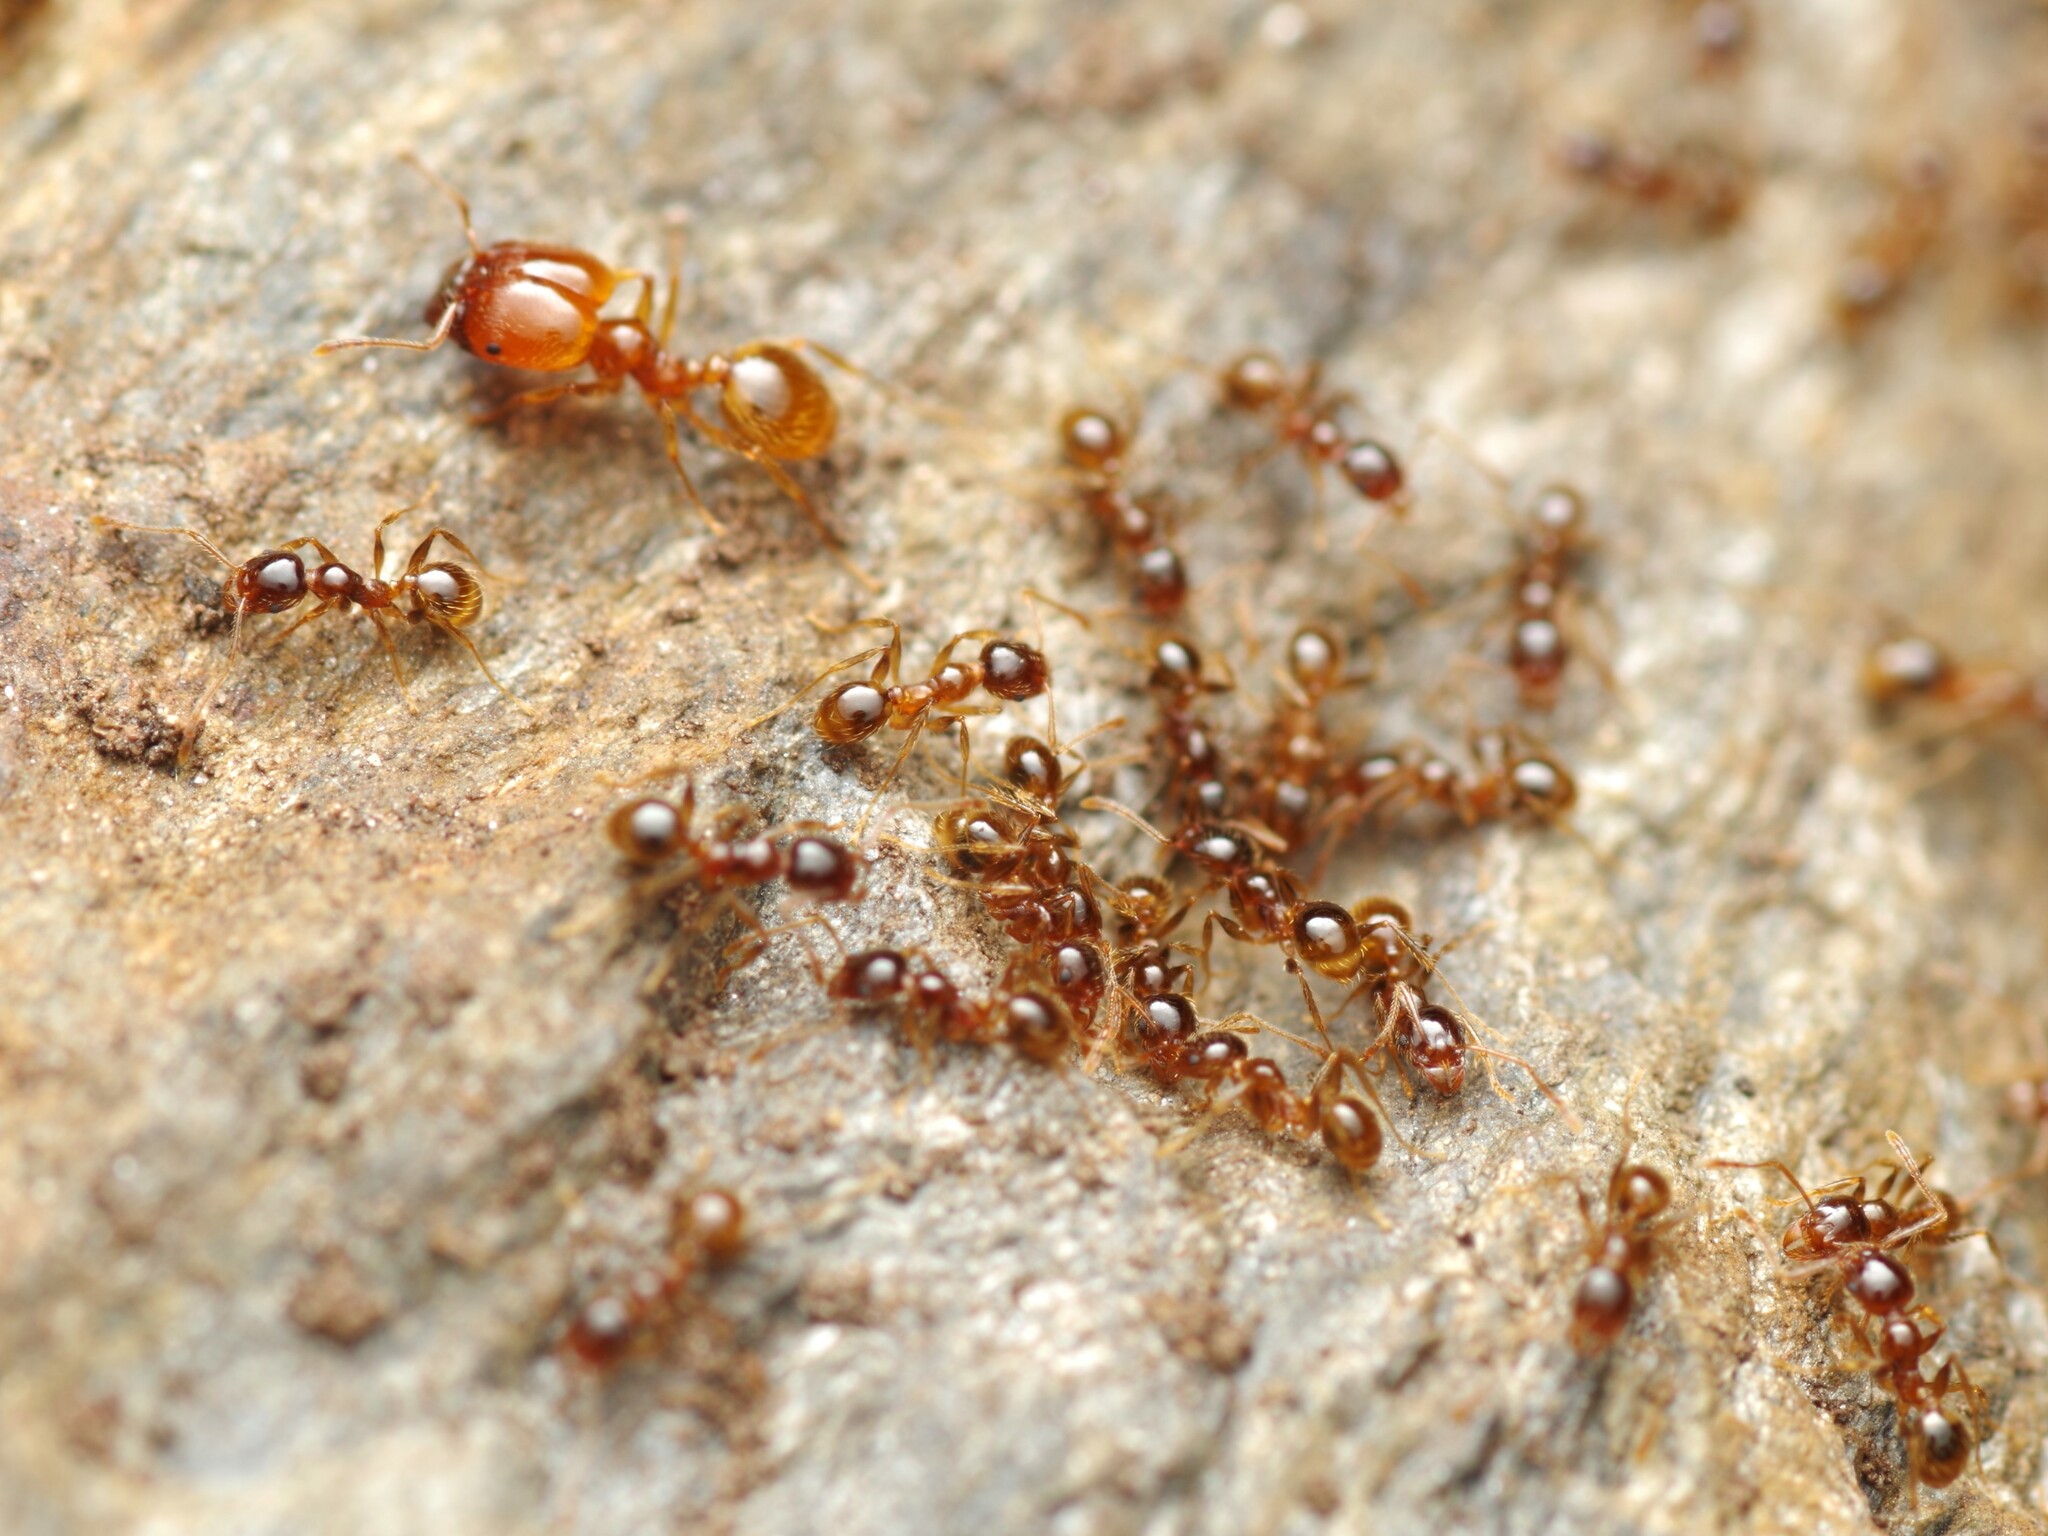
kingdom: Animalia
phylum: Arthropoda
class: Insecta
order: Hymenoptera
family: Formicidae
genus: Pheidole
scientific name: Pheidole pallidula
